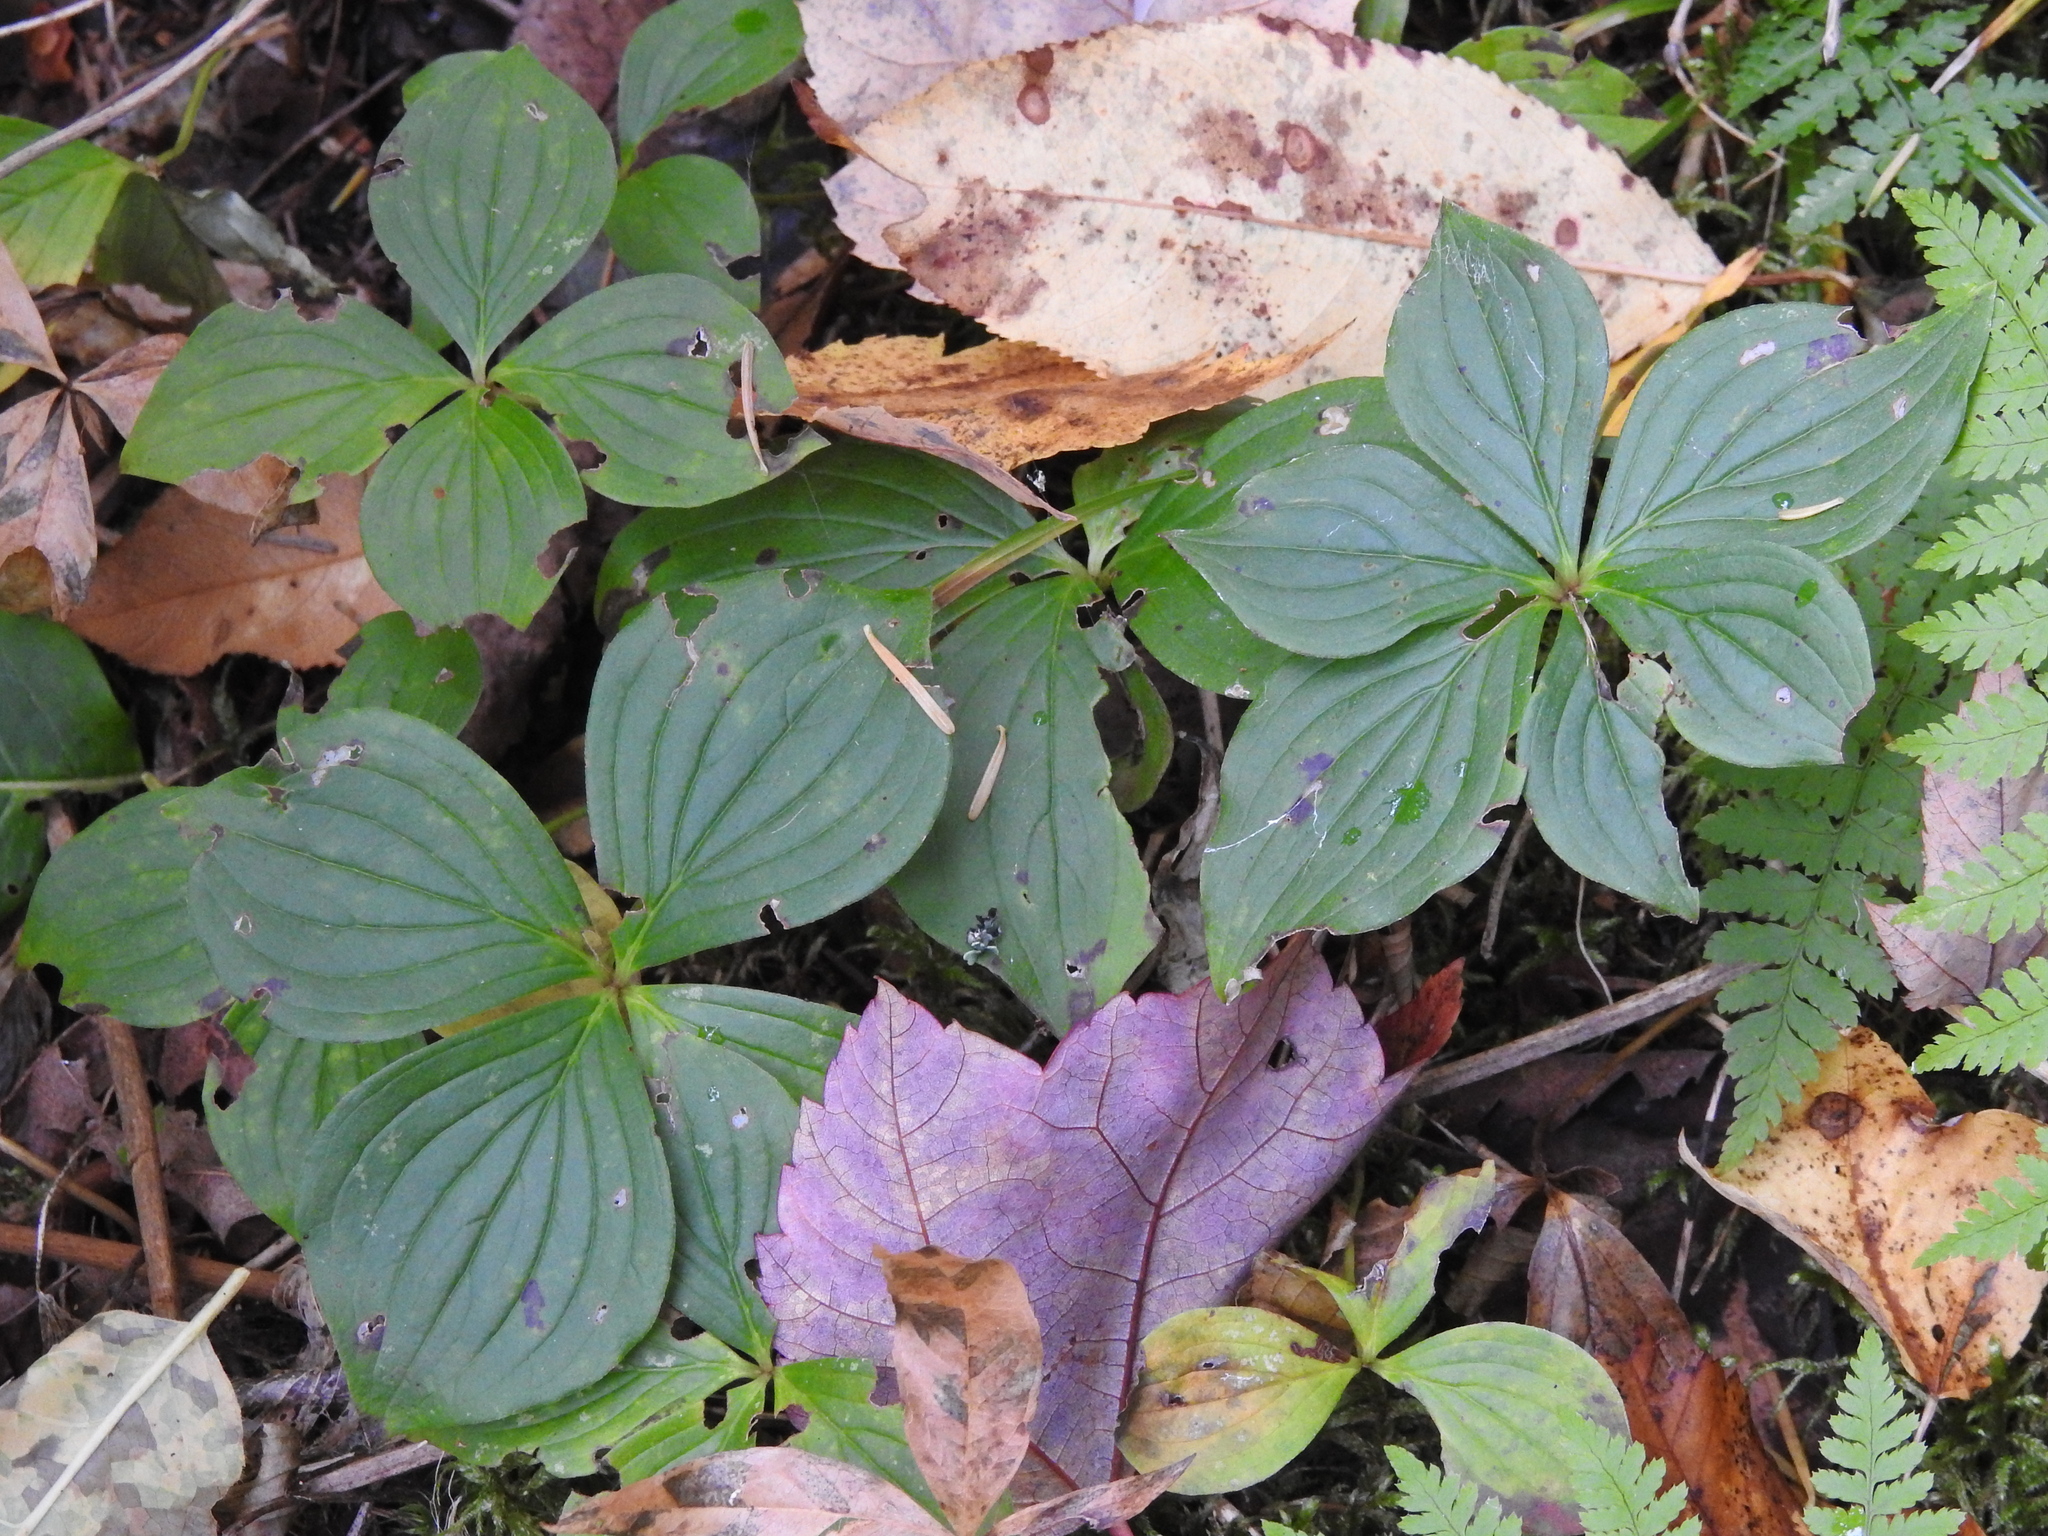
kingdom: Plantae
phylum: Tracheophyta
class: Magnoliopsida
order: Cornales
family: Cornaceae
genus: Cornus
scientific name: Cornus canadensis
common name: Creeping dogwood
